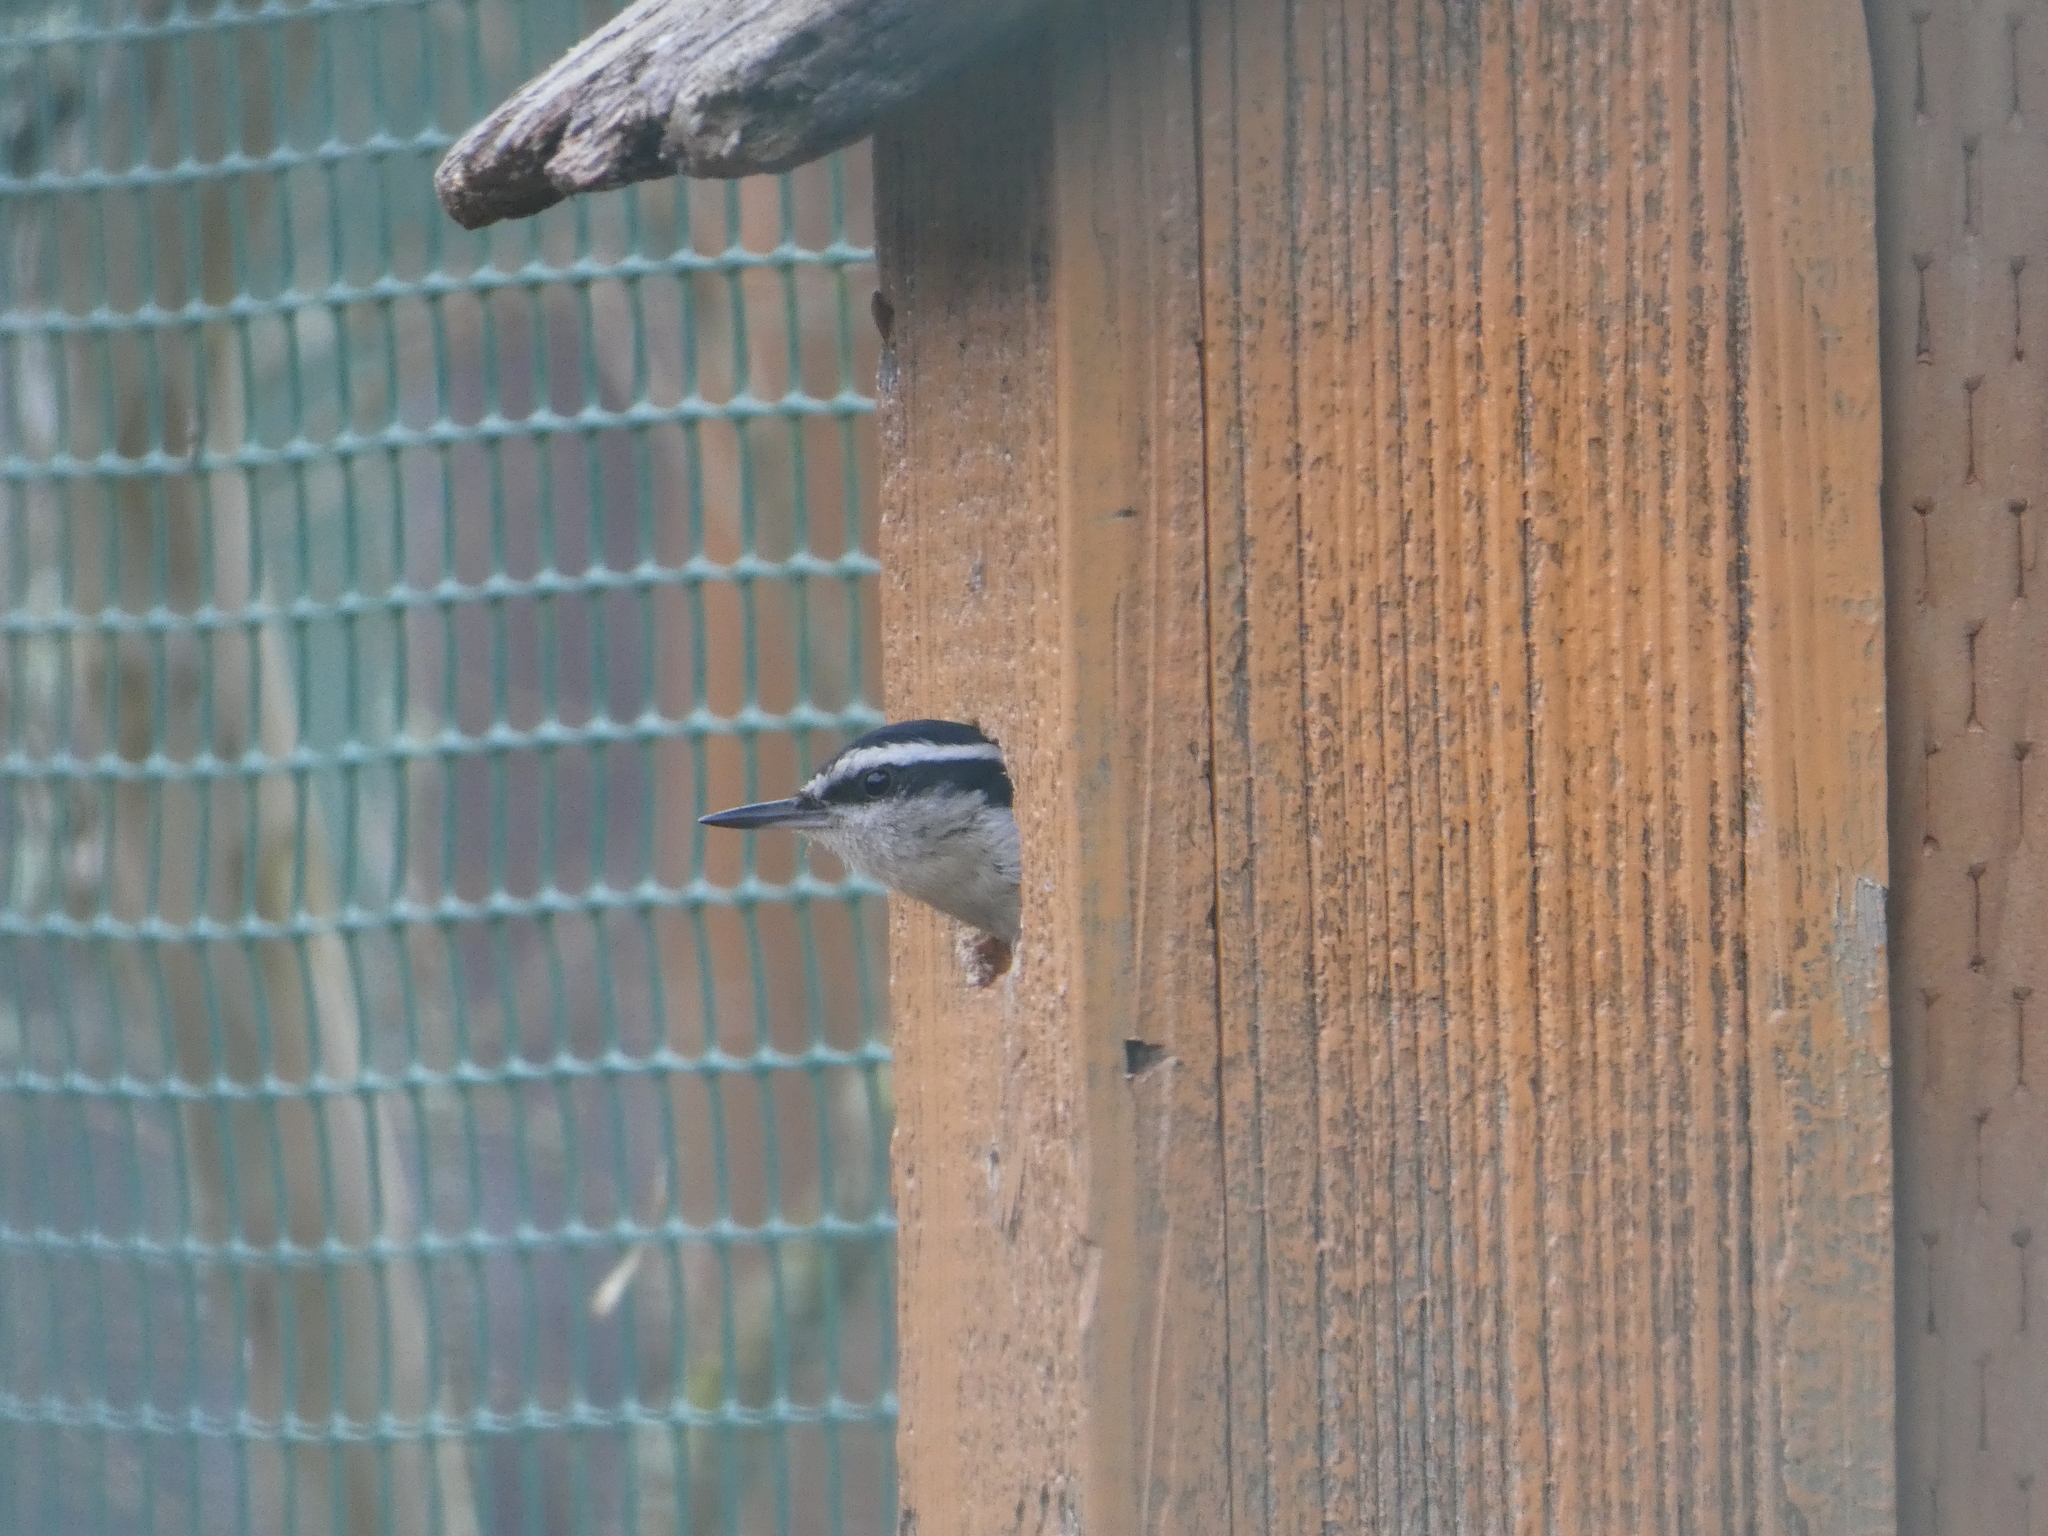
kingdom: Animalia
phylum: Chordata
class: Aves
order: Passeriformes
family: Sittidae
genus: Sitta
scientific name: Sitta canadensis
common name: Red-breasted nuthatch
